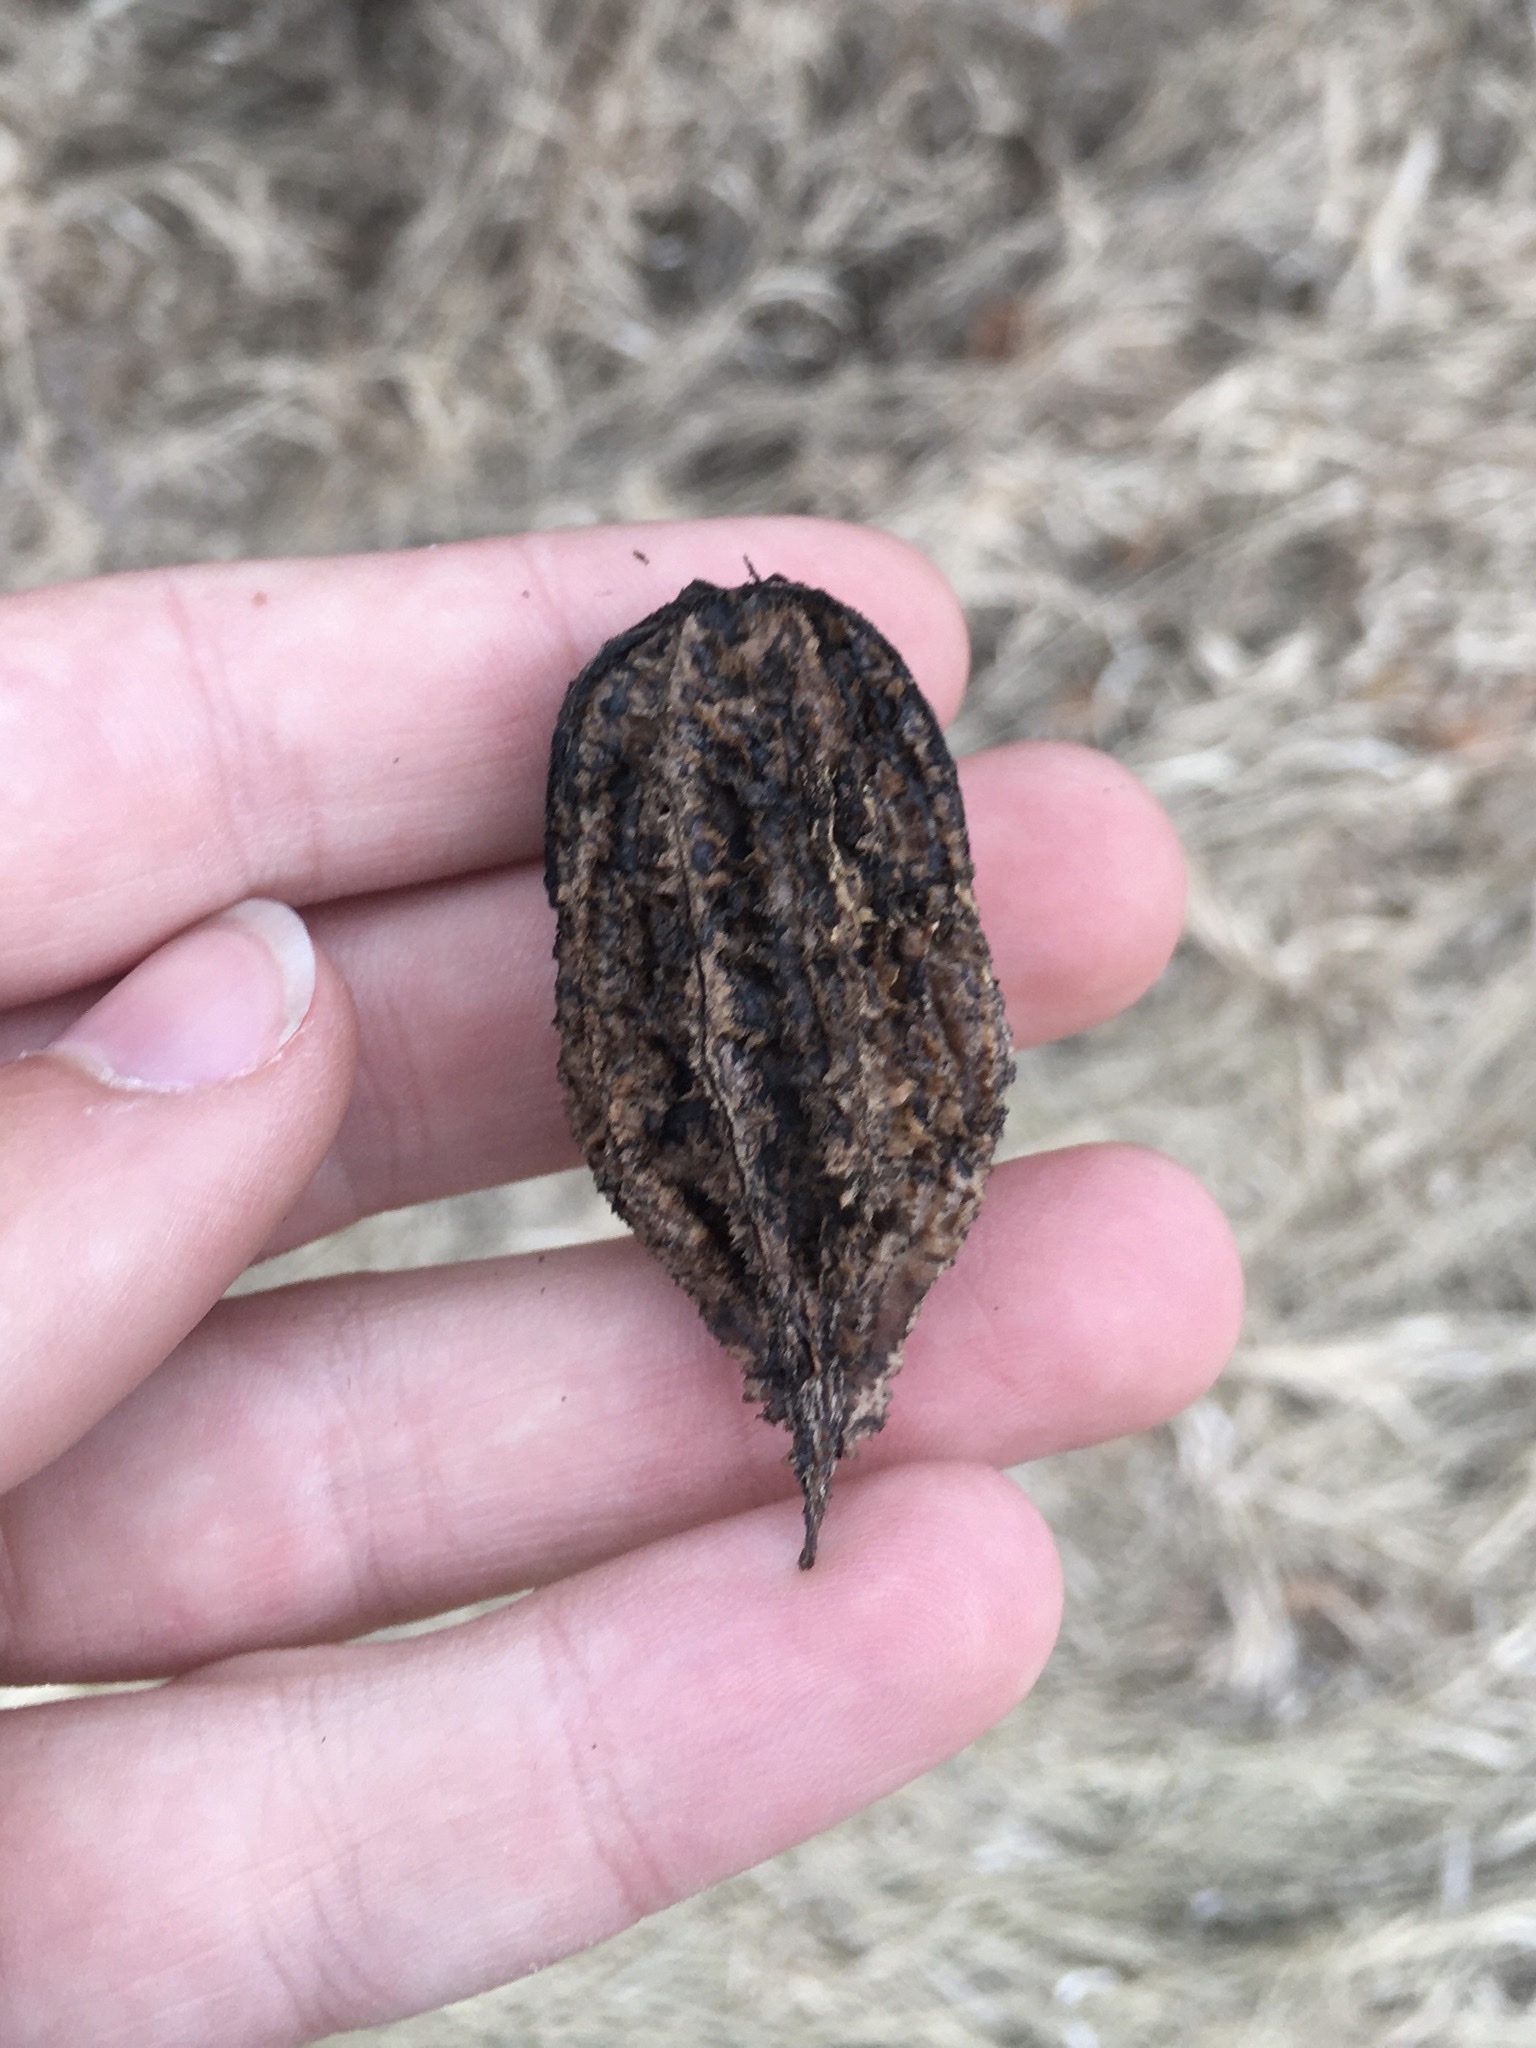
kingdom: Plantae
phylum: Tracheophyta
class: Magnoliopsida
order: Fagales
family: Juglandaceae
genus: Juglans
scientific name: Juglans cinerea
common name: Butternut
